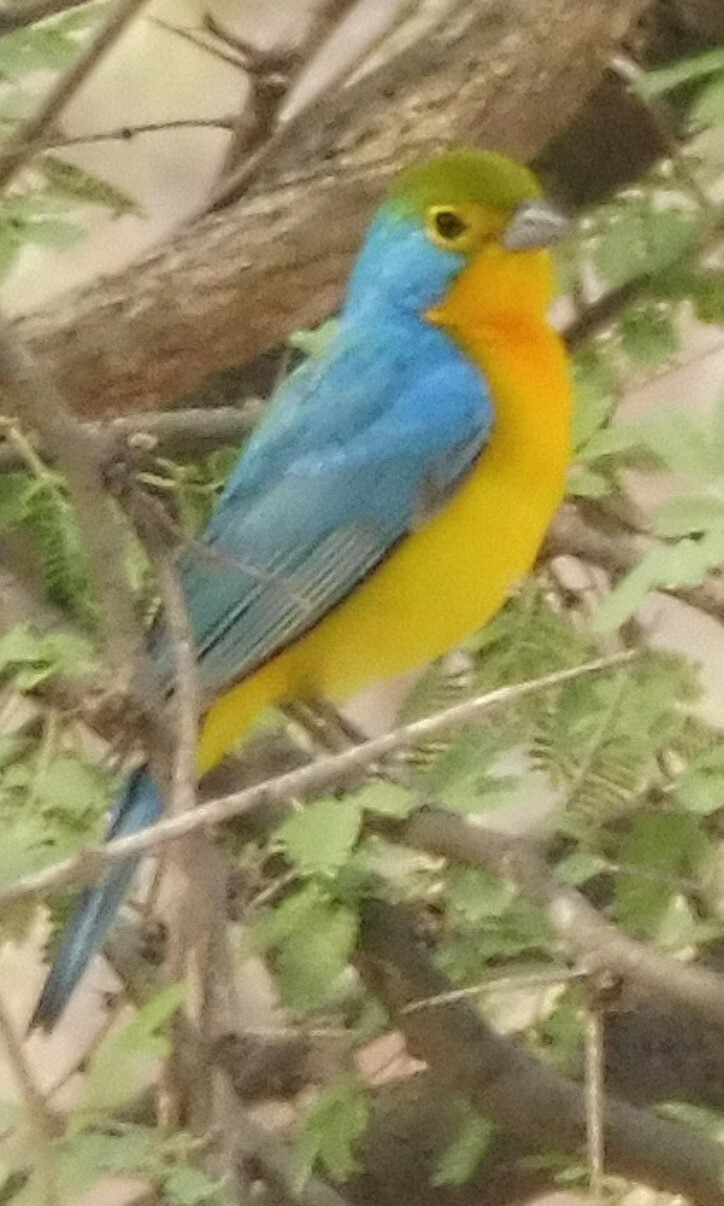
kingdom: Animalia
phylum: Chordata
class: Aves
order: Passeriformes
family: Cardinalidae
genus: Passerina
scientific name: Passerina leclancherii
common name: Orange-breasted bunting
